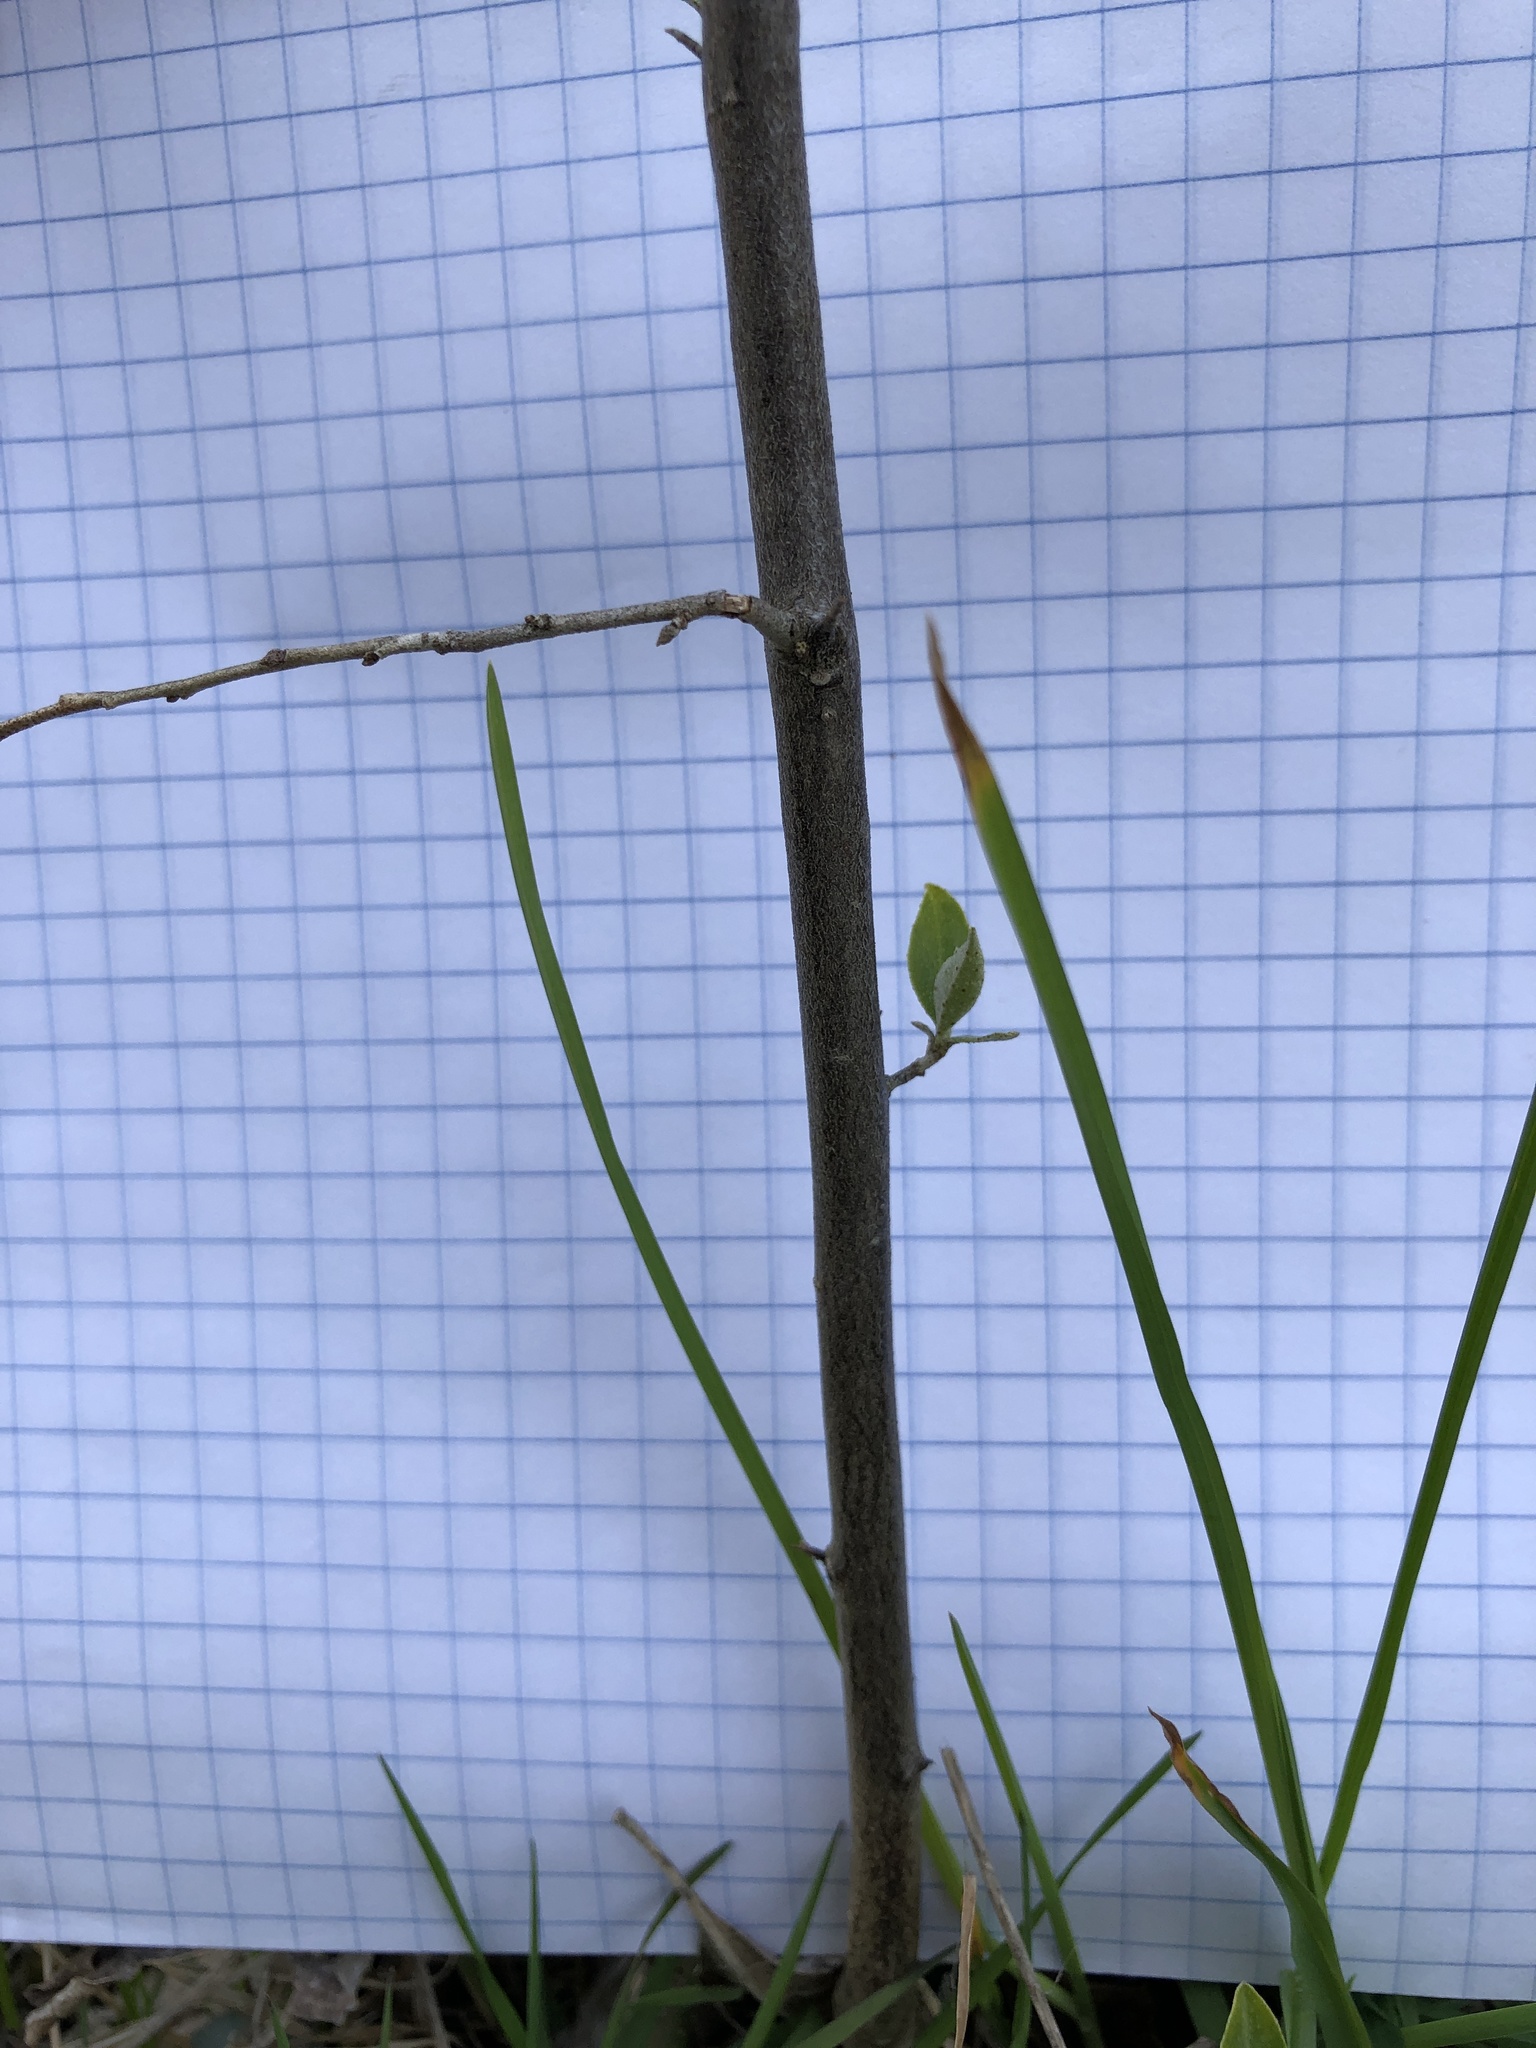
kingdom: Plantae
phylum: Tracheophyta
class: Magnoliopsida
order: Rosales
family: Elaeagnaceae
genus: Elaeagnus
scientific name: Elaeagnus umbellata
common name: Autumn olive
